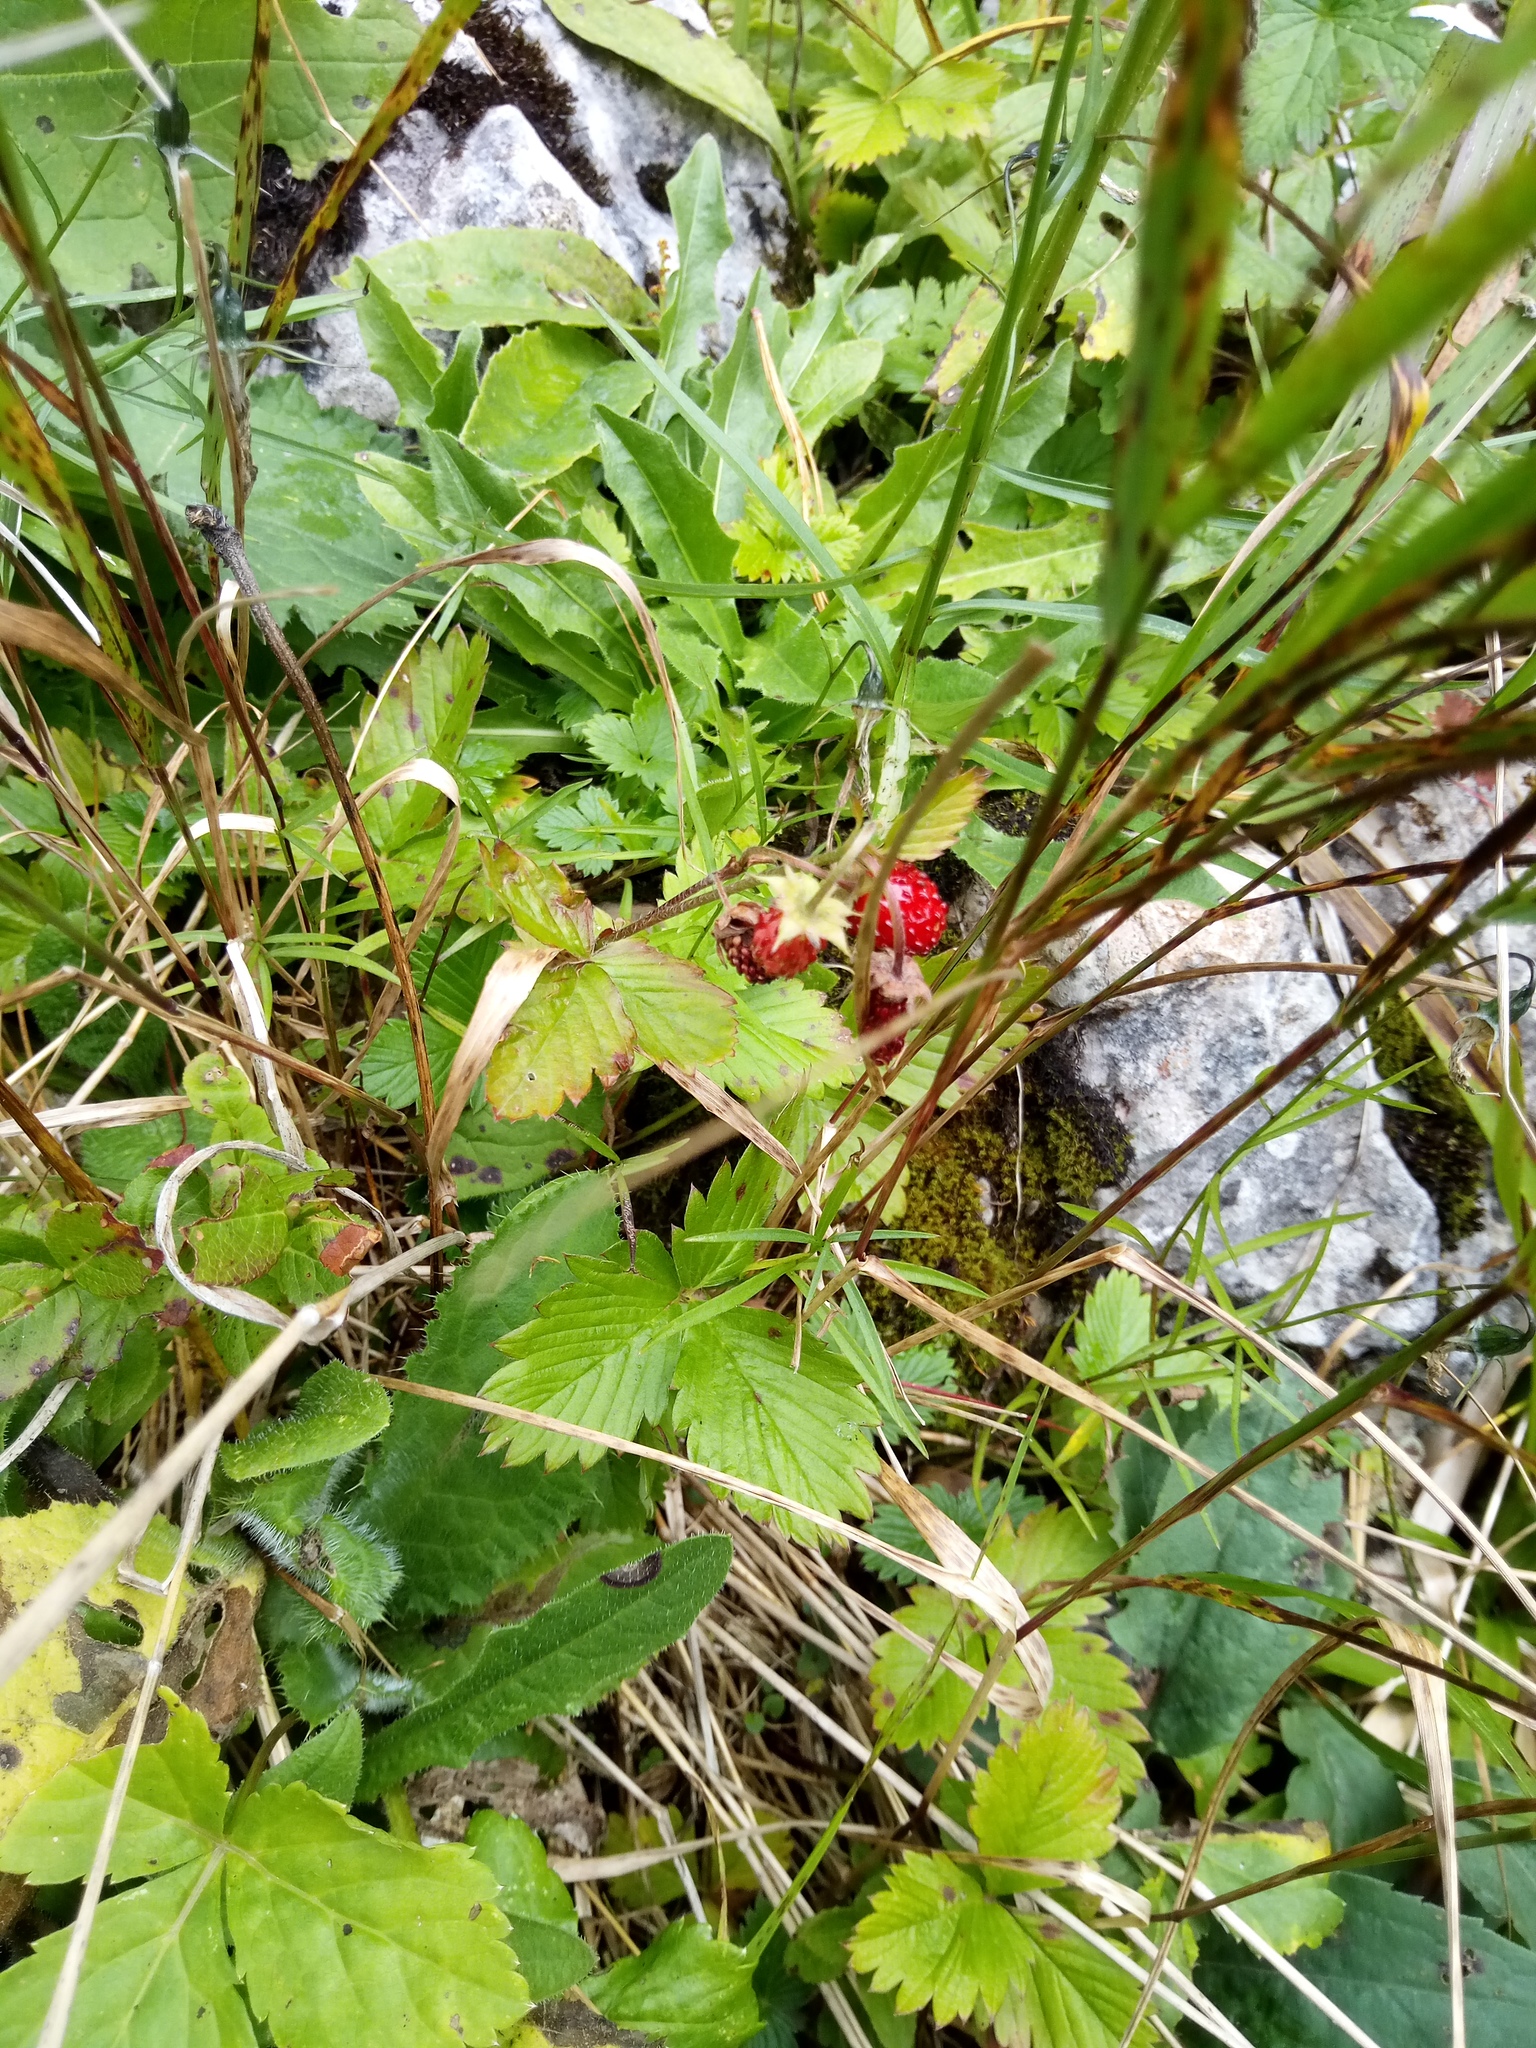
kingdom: Plantae
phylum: Tracheophyta
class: Magnoliopsida
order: Rosales
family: Rosaceae
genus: Fragaria
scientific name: Fragaria vesca
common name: Wild strawberry
